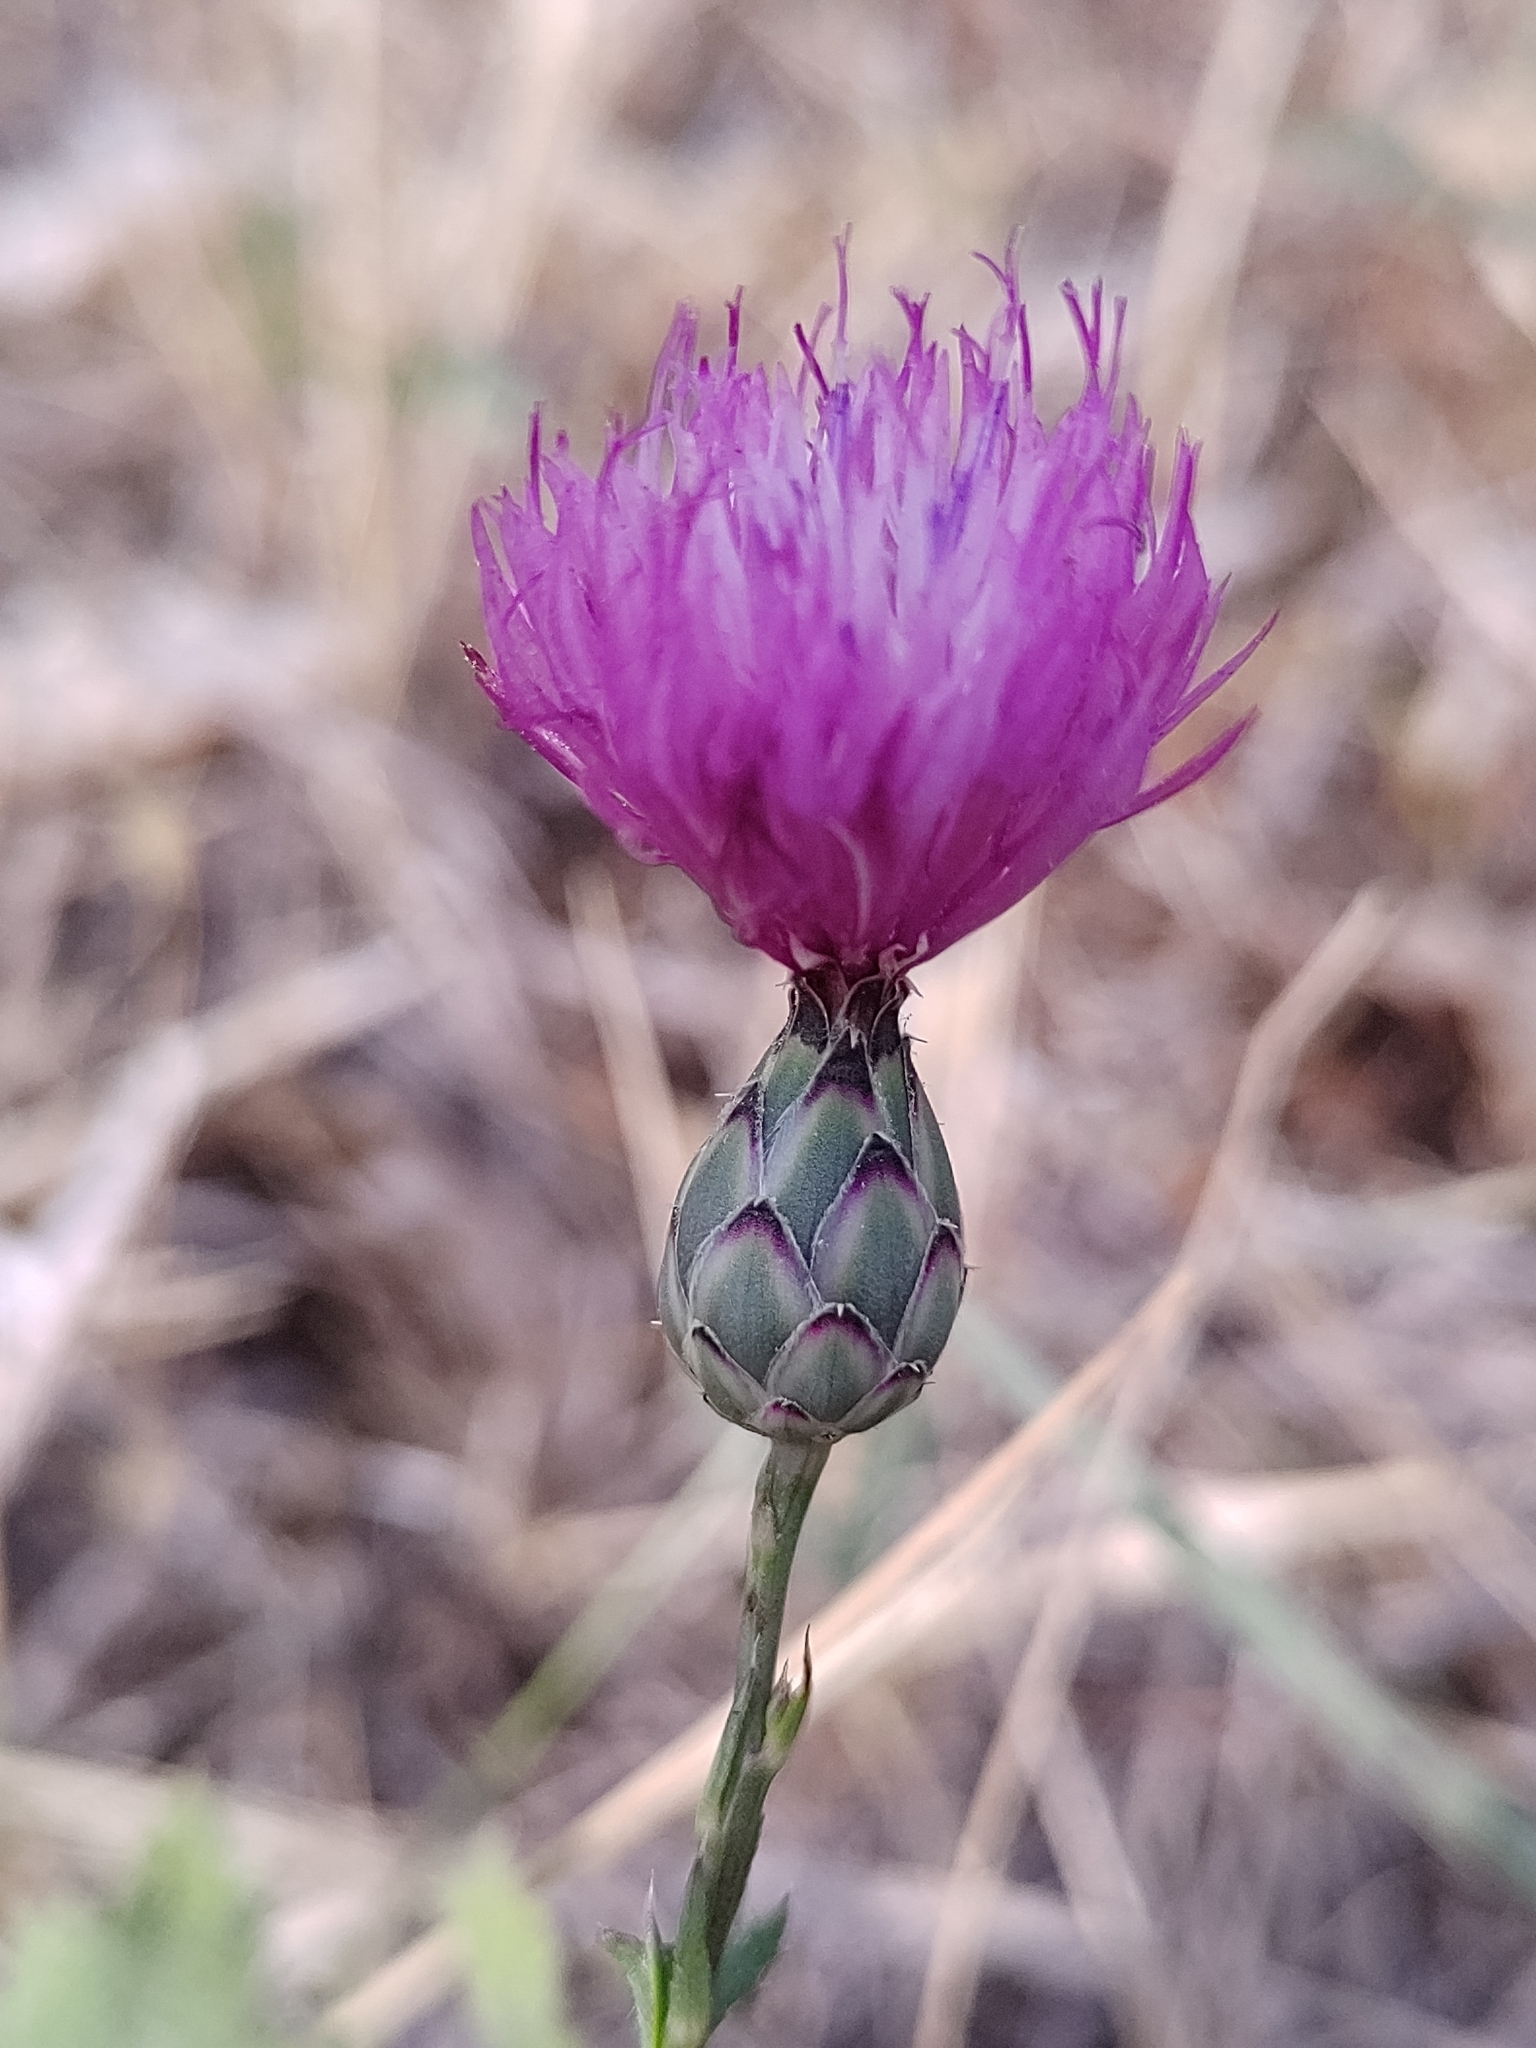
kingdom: Plantae
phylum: Tracheophyta
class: Magnoliopsida
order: Asterales
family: Asteraceae
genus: Mantisalca
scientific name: Mantisalca salmantica
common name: Dagger flower
